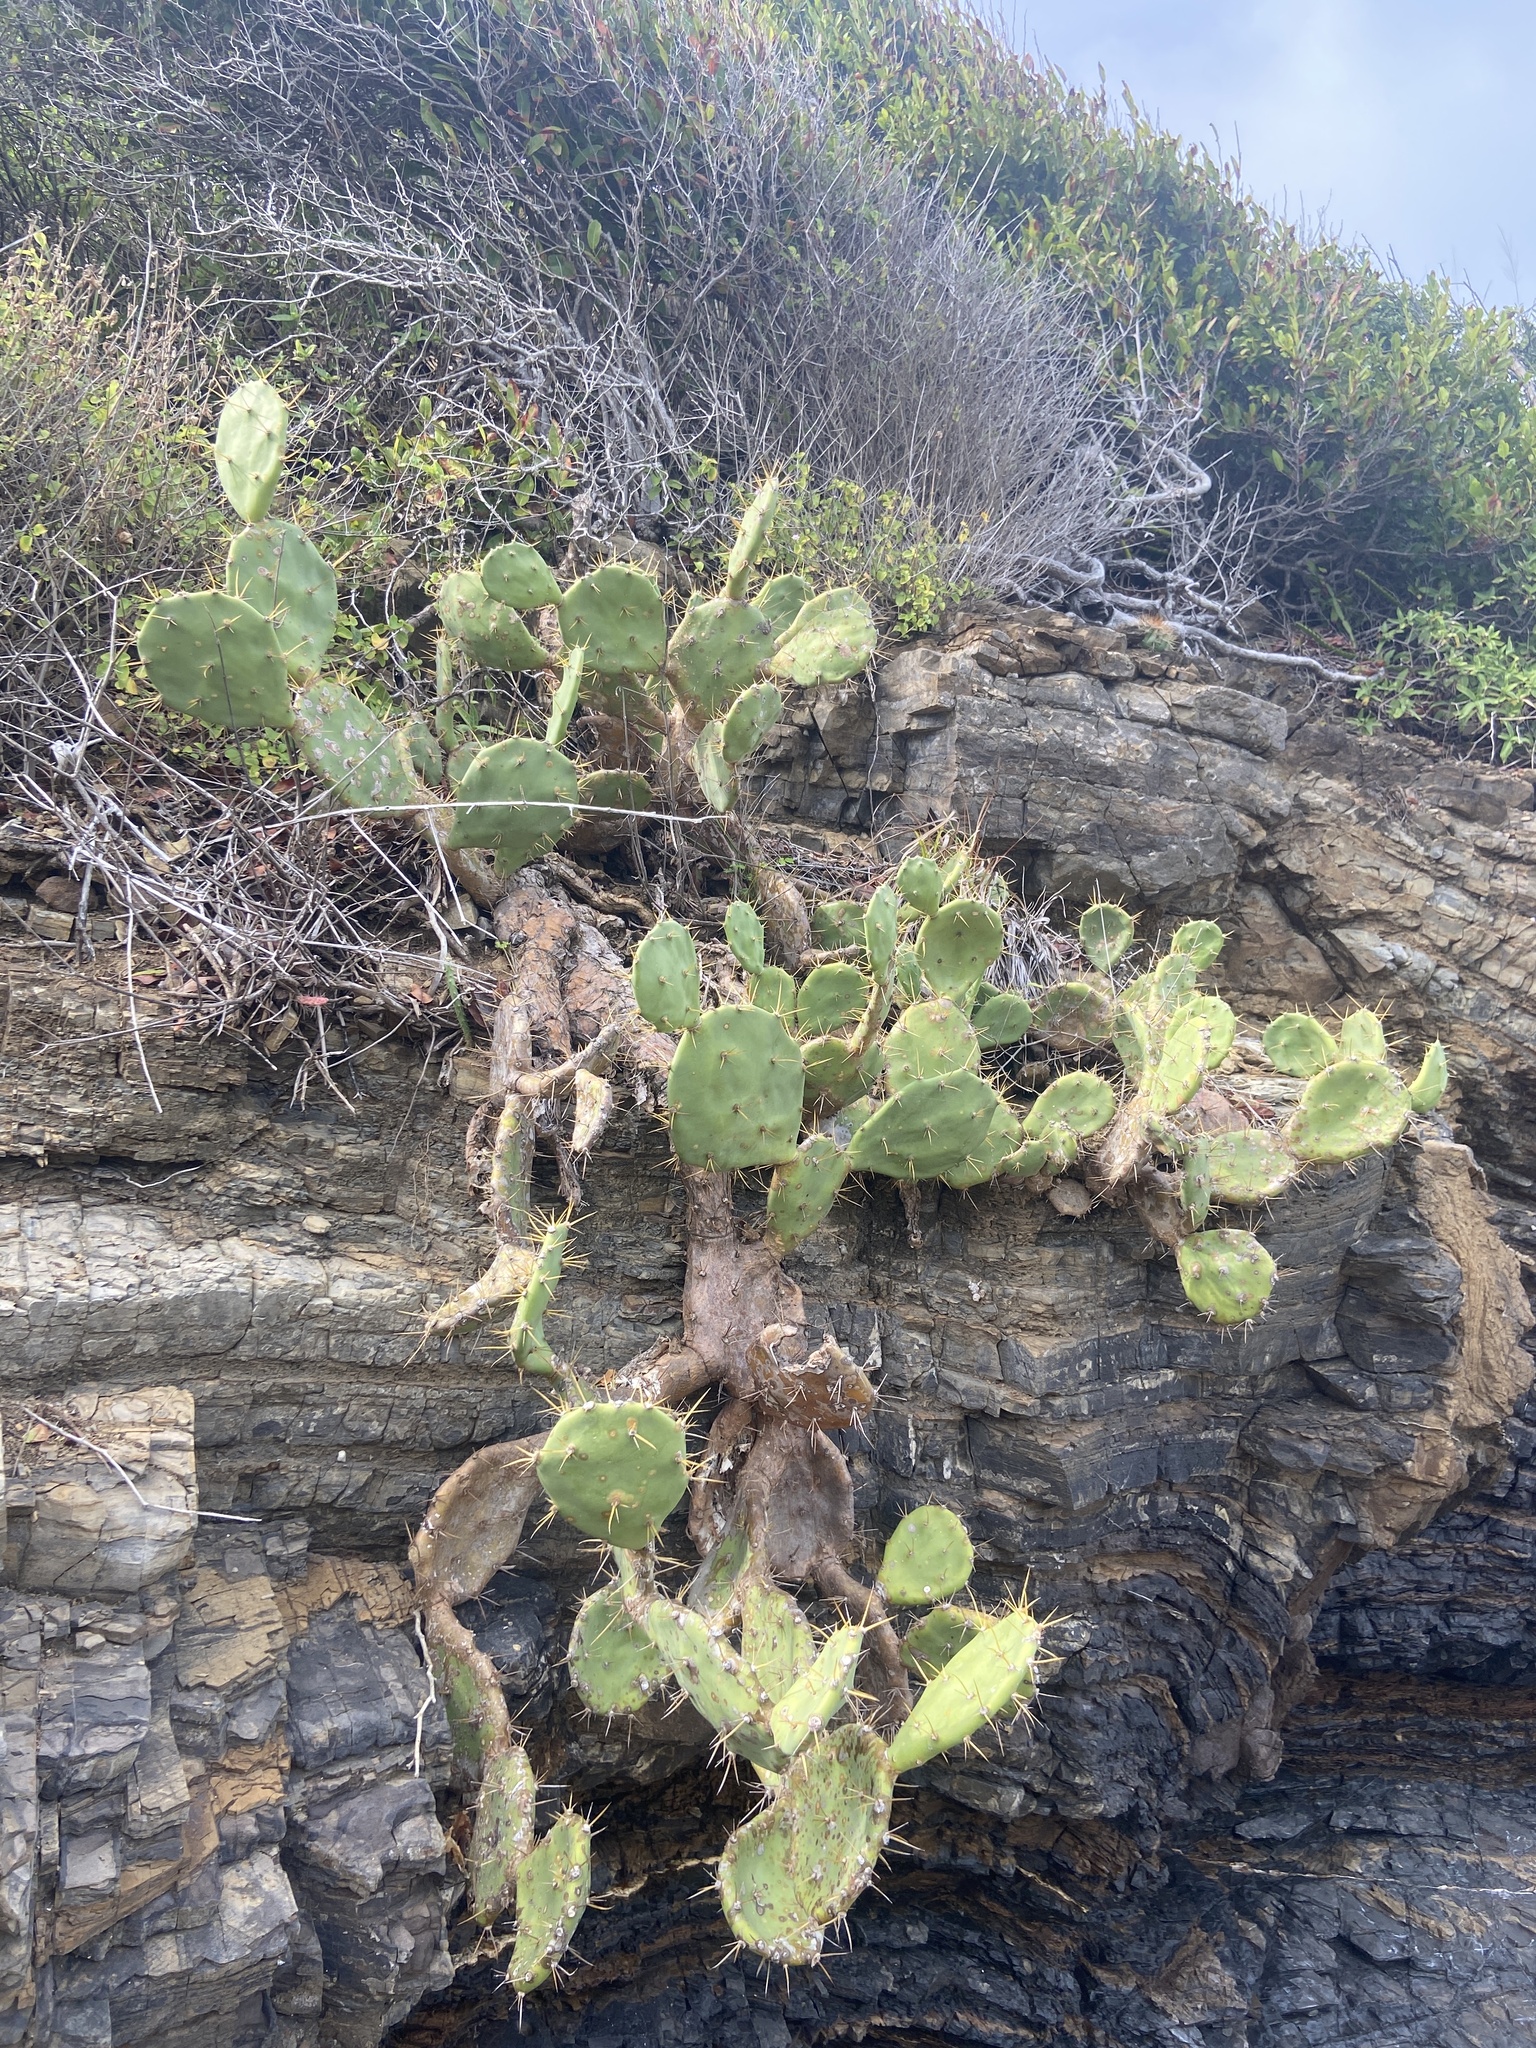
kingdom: Plantae
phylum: Tracheophyta
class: Magnoliopsida
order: Caryophyllales
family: Cactaceae
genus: Opuntia
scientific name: Opuntia stricta
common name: Erect pricklypear
